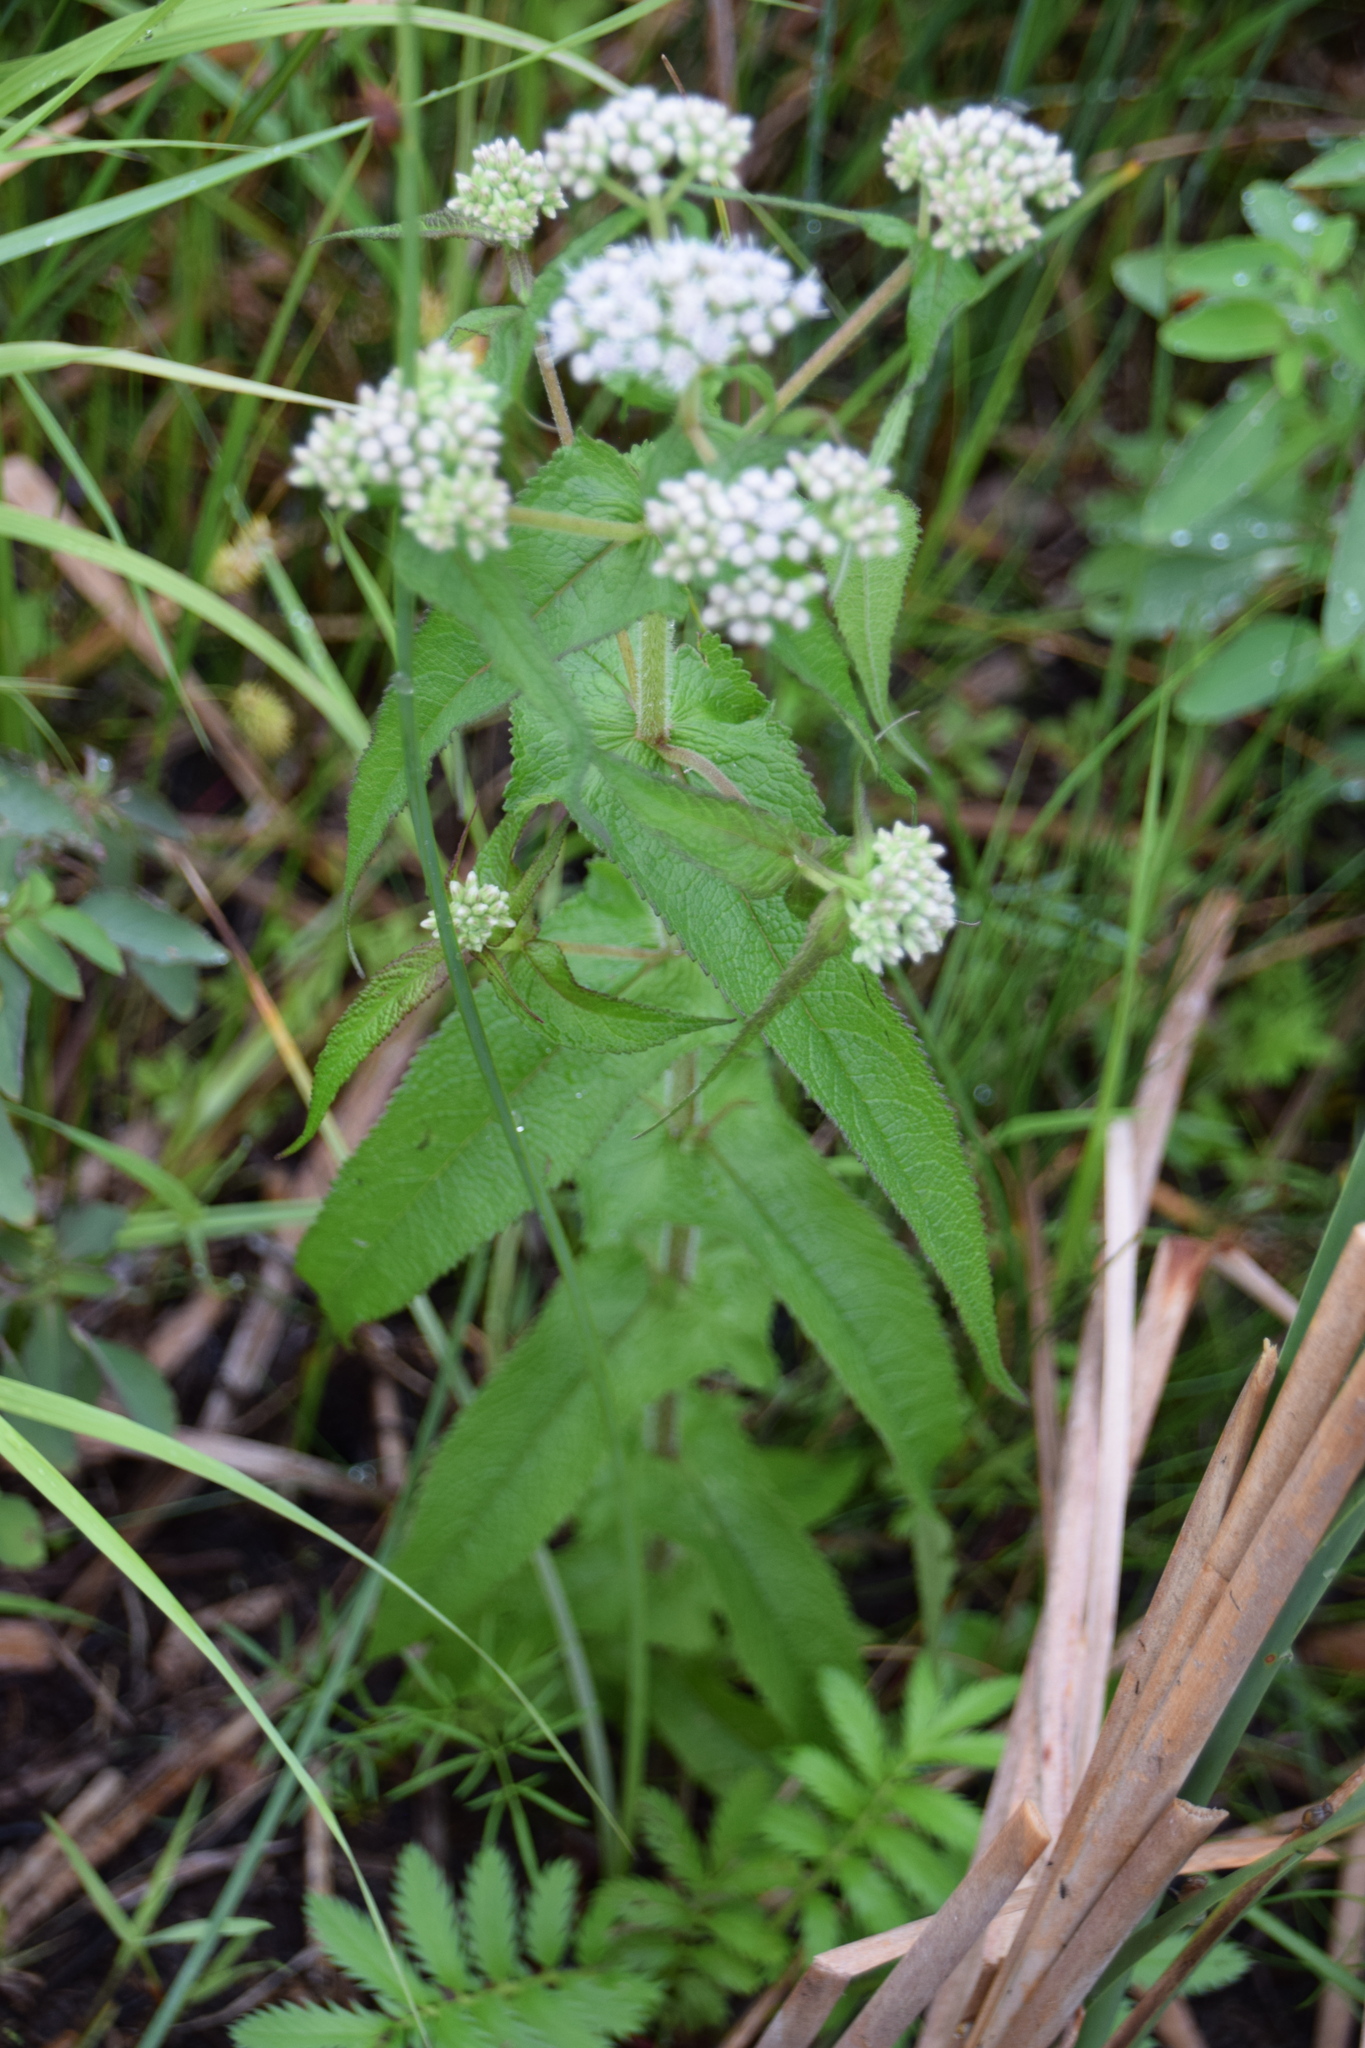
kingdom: Plantae
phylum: Tracheophyta
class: Magnoliopsida
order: Asterales
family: Asteraceae
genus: Eupatorium
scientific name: Eupatorium perfoliatum
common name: Boneset
